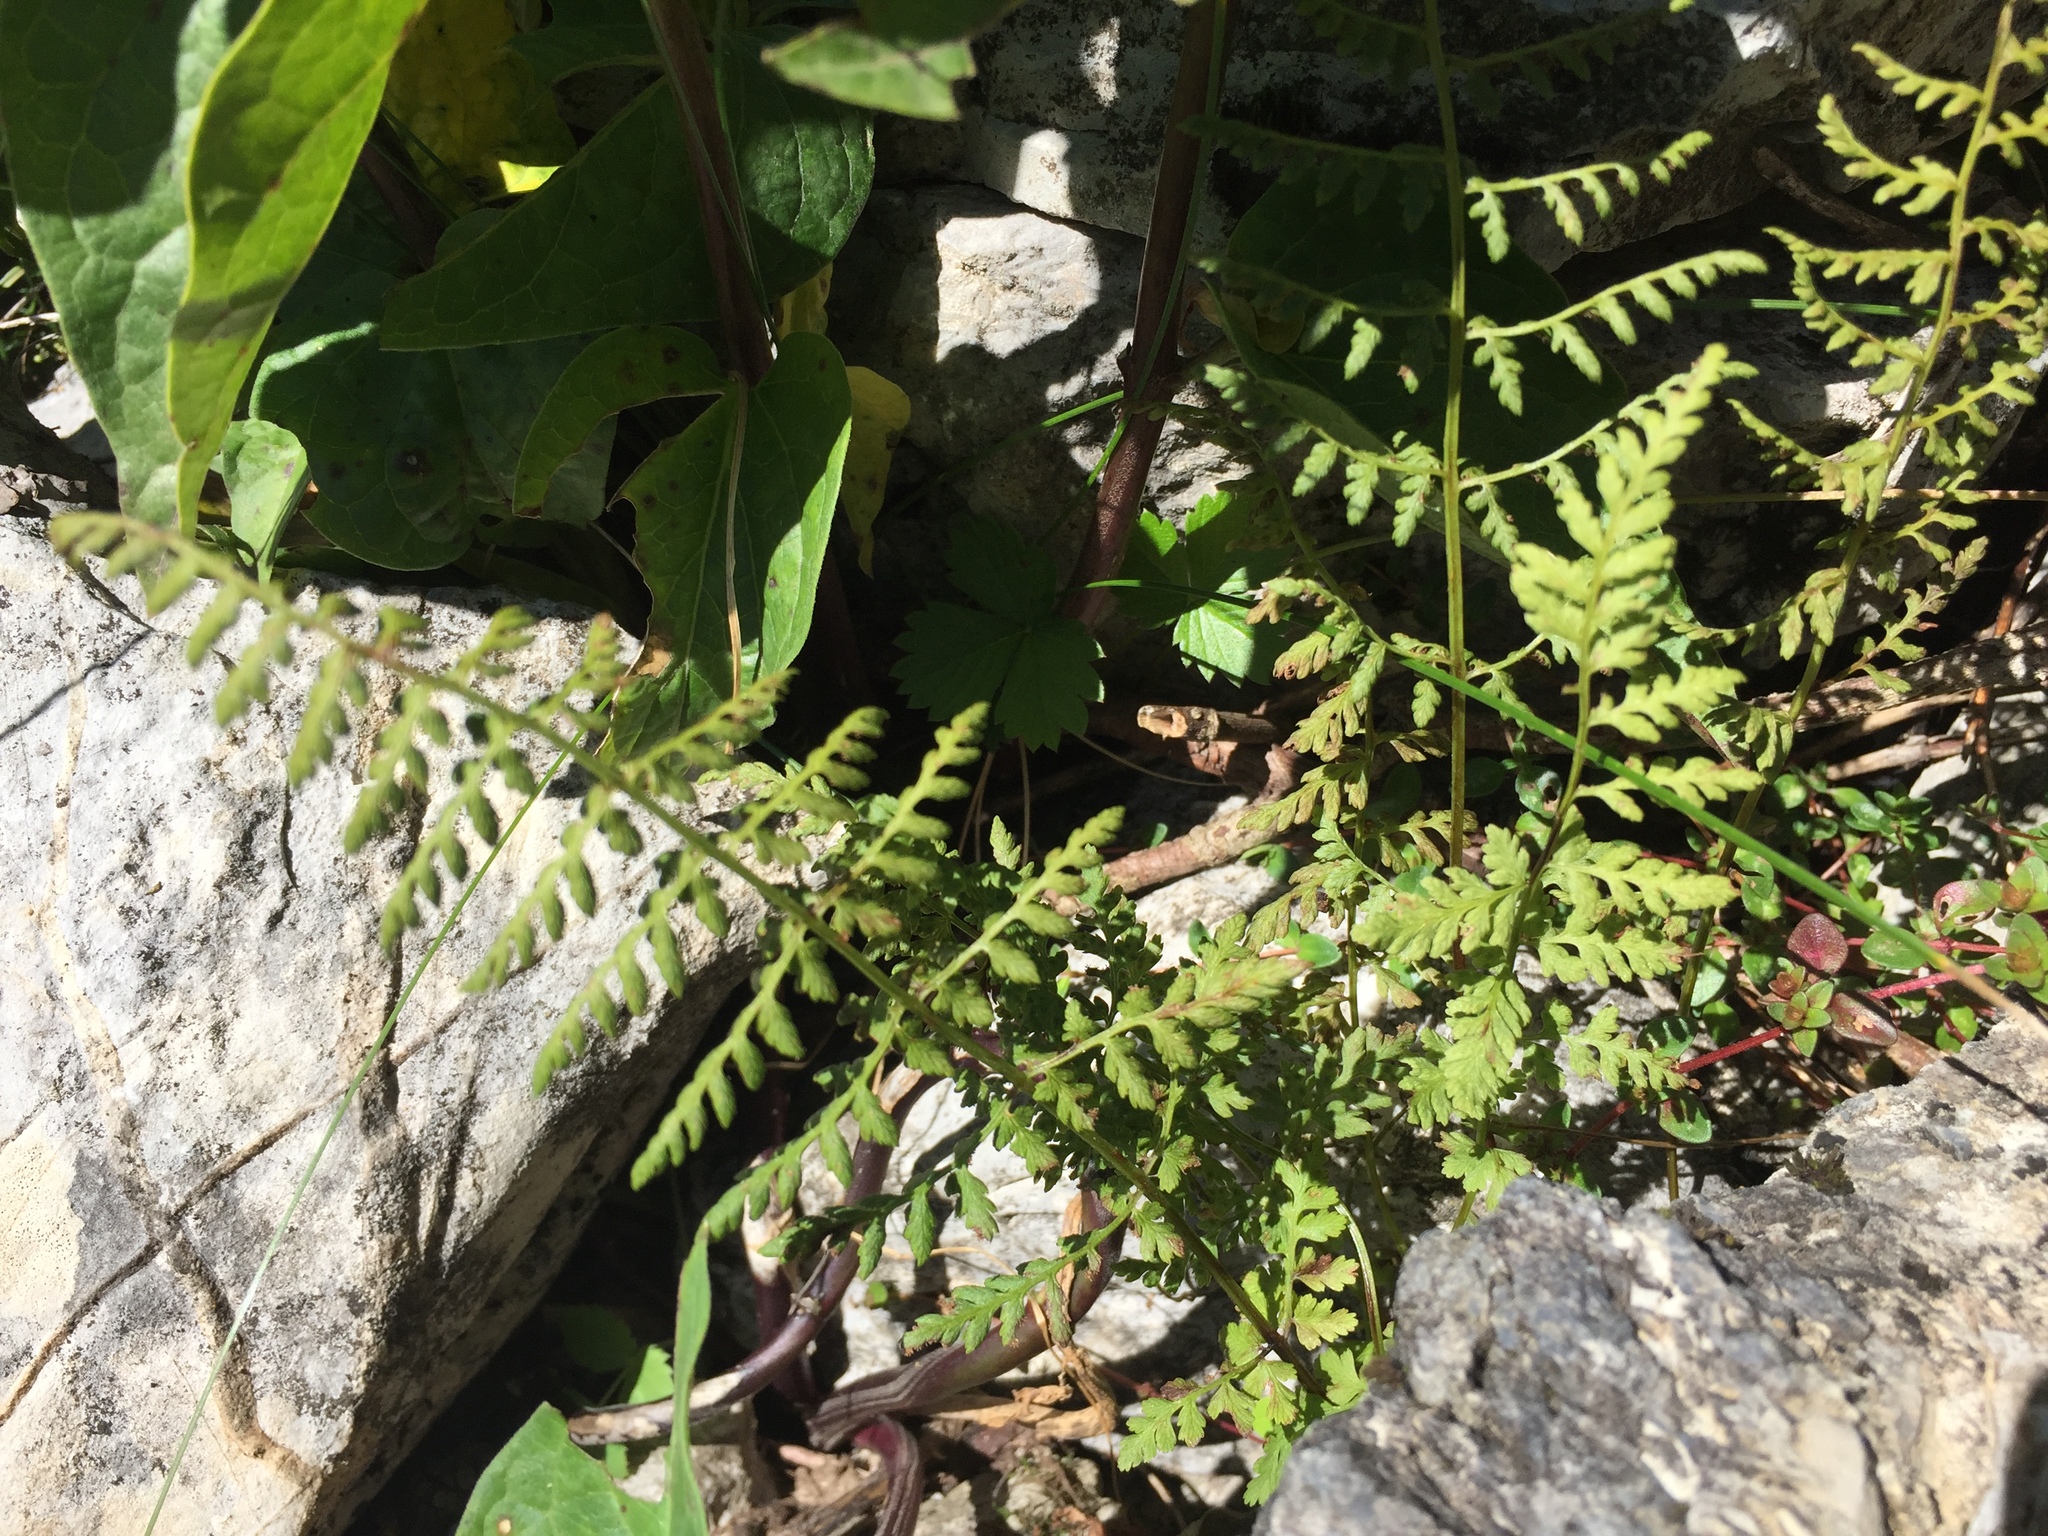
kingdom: Plantae
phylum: Tracheophyta
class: Polypodiopsida
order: Polypodiales
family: Cystopteridaceae
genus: Cystopteris
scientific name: Cystopteris fragilis
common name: Brittle bladder fern
